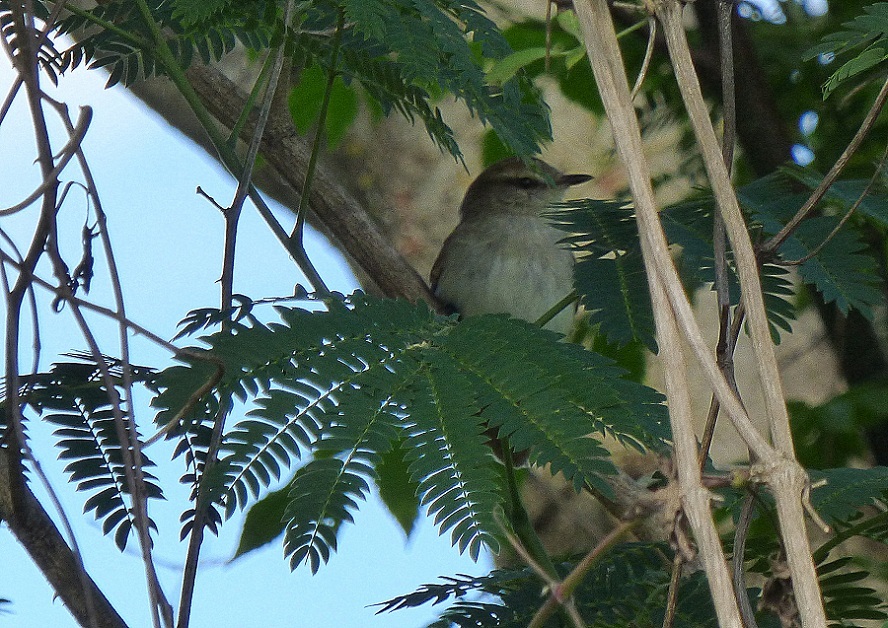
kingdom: Animalia
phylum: Chordata
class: Aves
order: Passeriformes
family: Tyrannidae
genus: Cnemotriccus
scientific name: Cnemotriccus fuscatus
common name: Fuscous flycatcher
